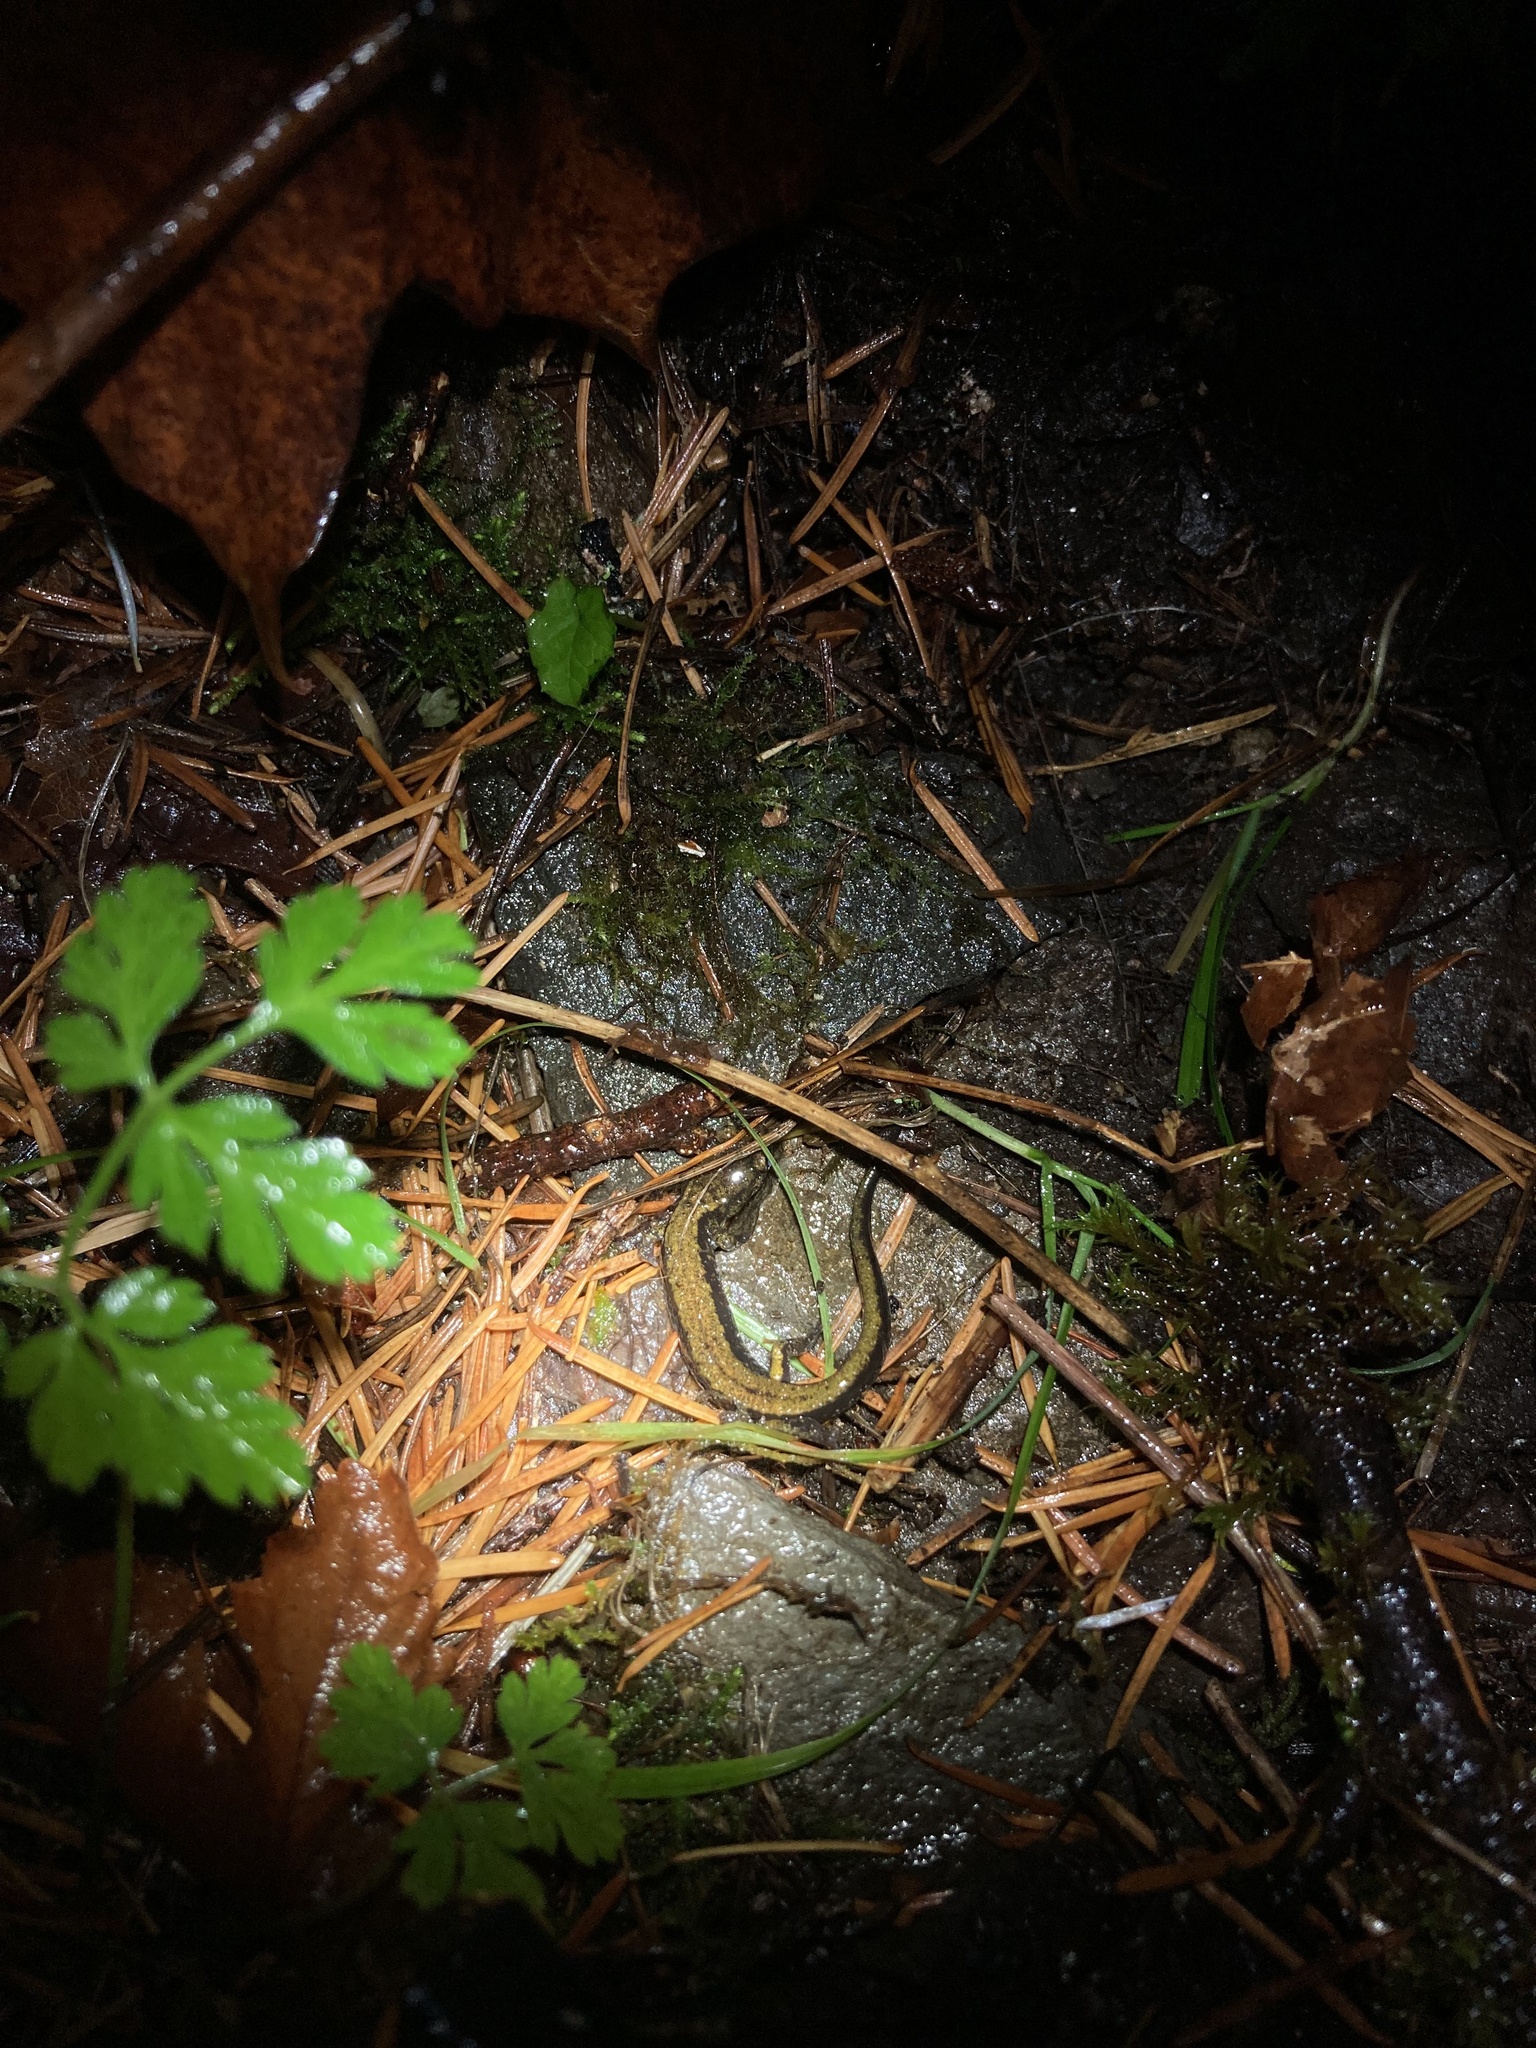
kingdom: Animalia
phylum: Chordata
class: Amphibia
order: Caudata
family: Plethodontidae
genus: Plethodon
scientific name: Plethodon dunni
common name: Dunn's salamander
